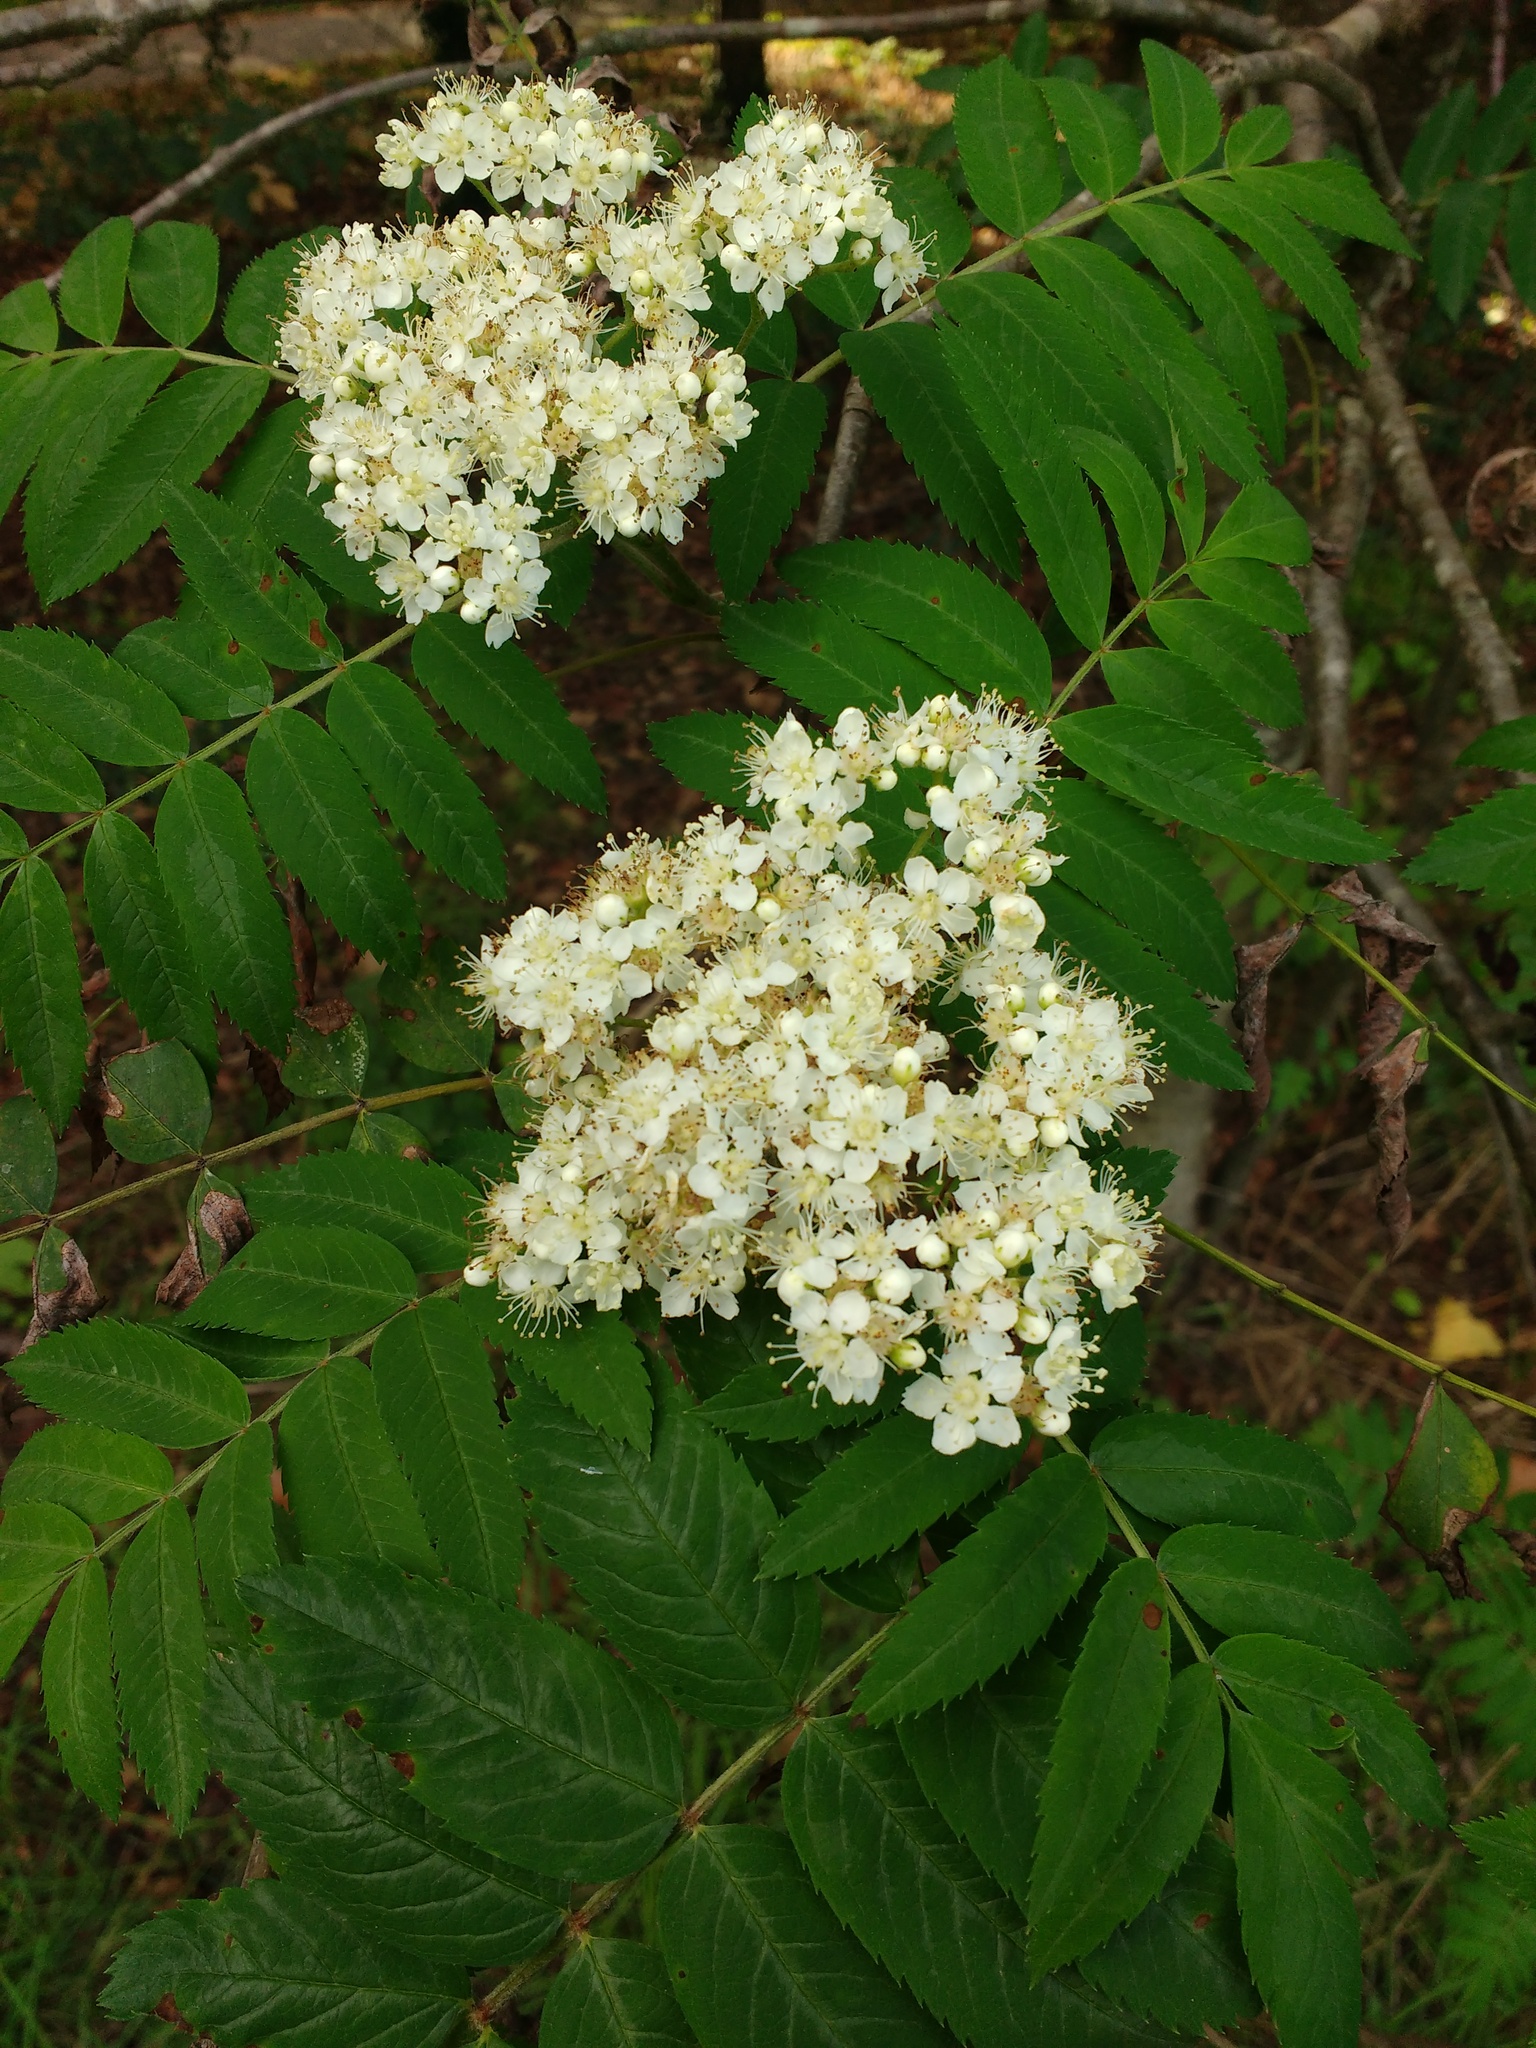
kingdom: Plantae
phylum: Tracheophyta
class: Magnoliopsida
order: Rosales
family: Rosaceae
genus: Sorbus
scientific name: Sorbus aucuparia
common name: Rowan
